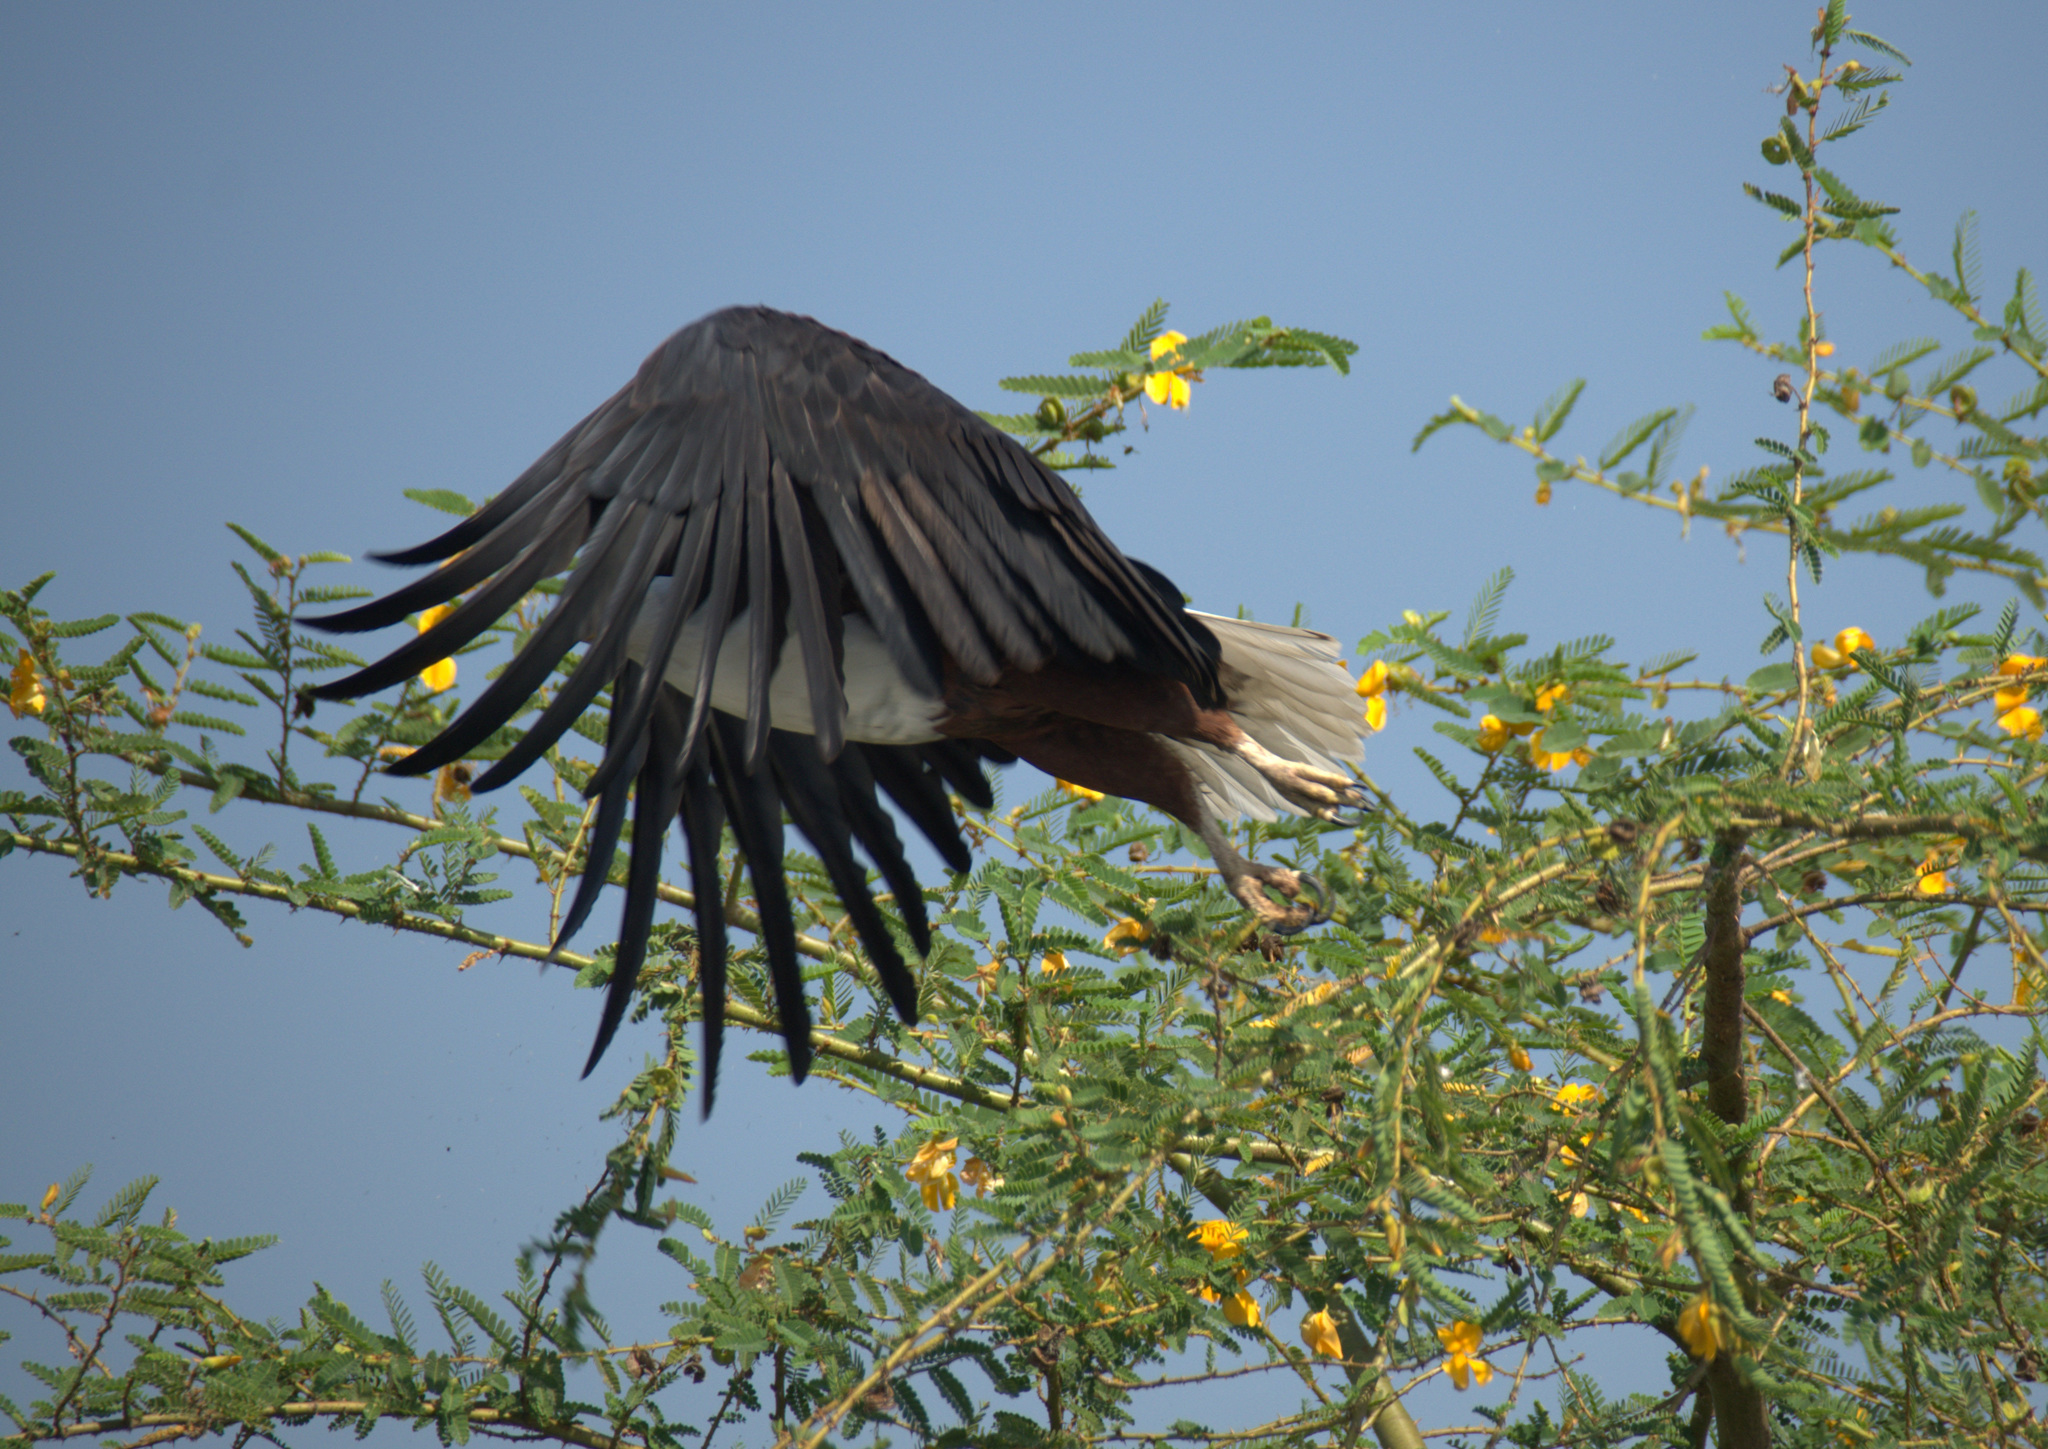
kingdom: Animalia
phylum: Chordata
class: Aves
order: Accipitriformes
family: Accipitridae
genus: Haliaeetus
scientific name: Haliaeetus vocifer
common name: African fish eagle
